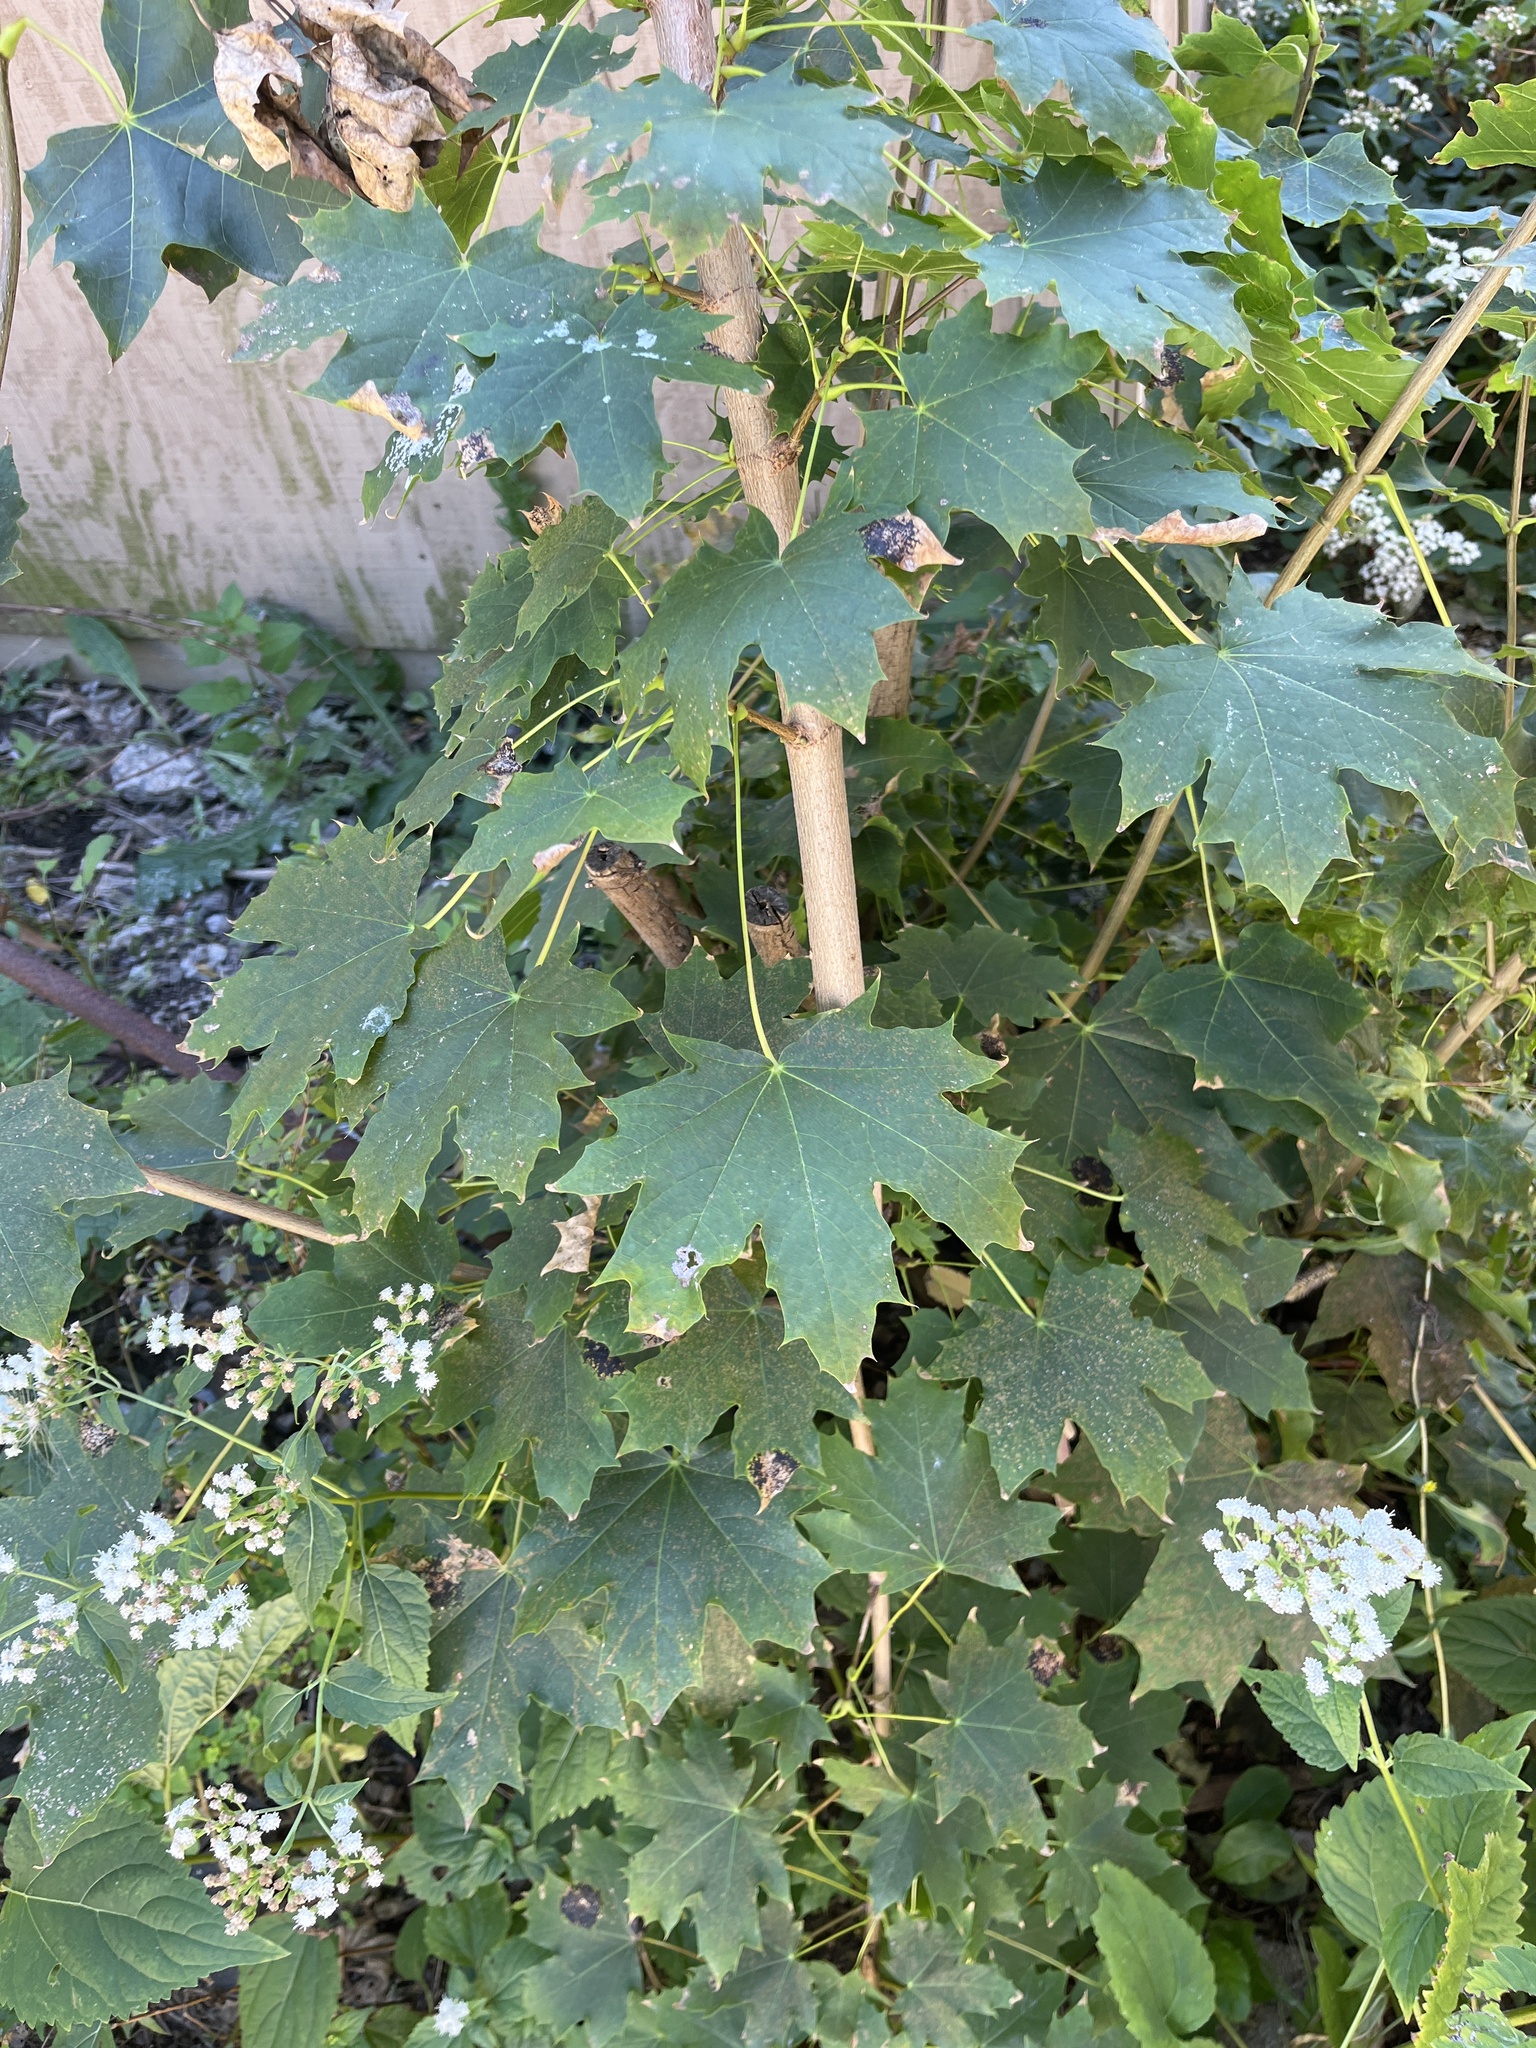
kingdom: Plantae
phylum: Tracheophyta
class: Magnoliopsida
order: Sapindales
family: Sapindaceae
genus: Acer
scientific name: Acer platanoides
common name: Norway maple
